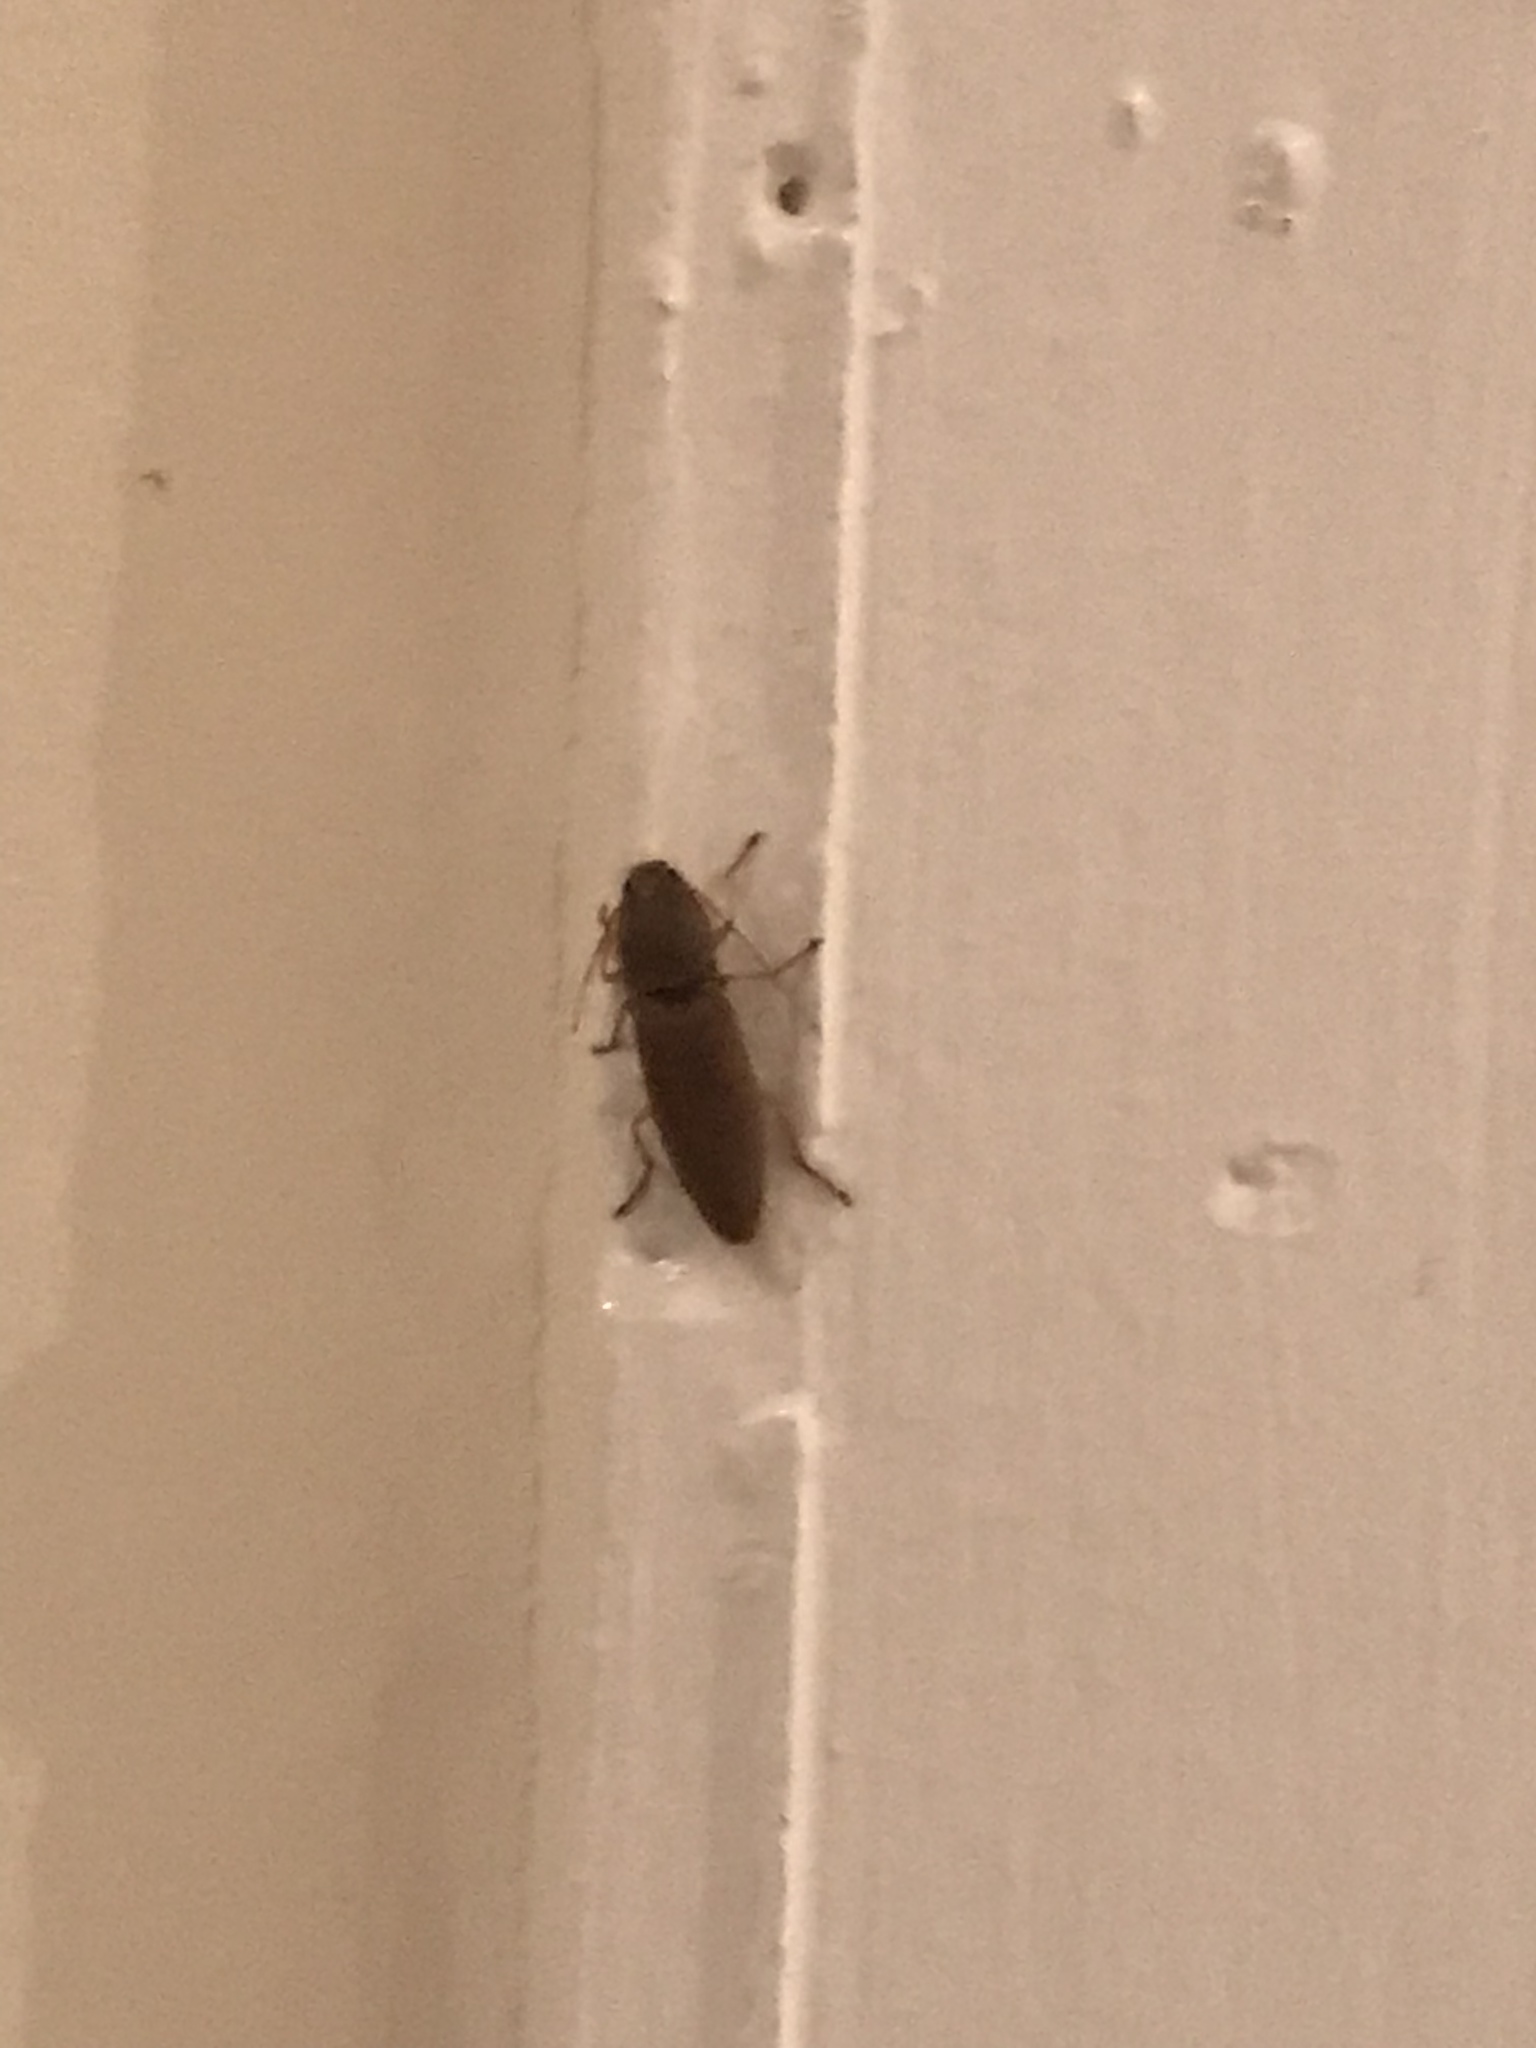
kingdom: Animalia
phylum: Arthropoda
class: Insecta
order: Coleoptera
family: Elateridae
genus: Monocrepidius
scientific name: Monocrepidius lividus
